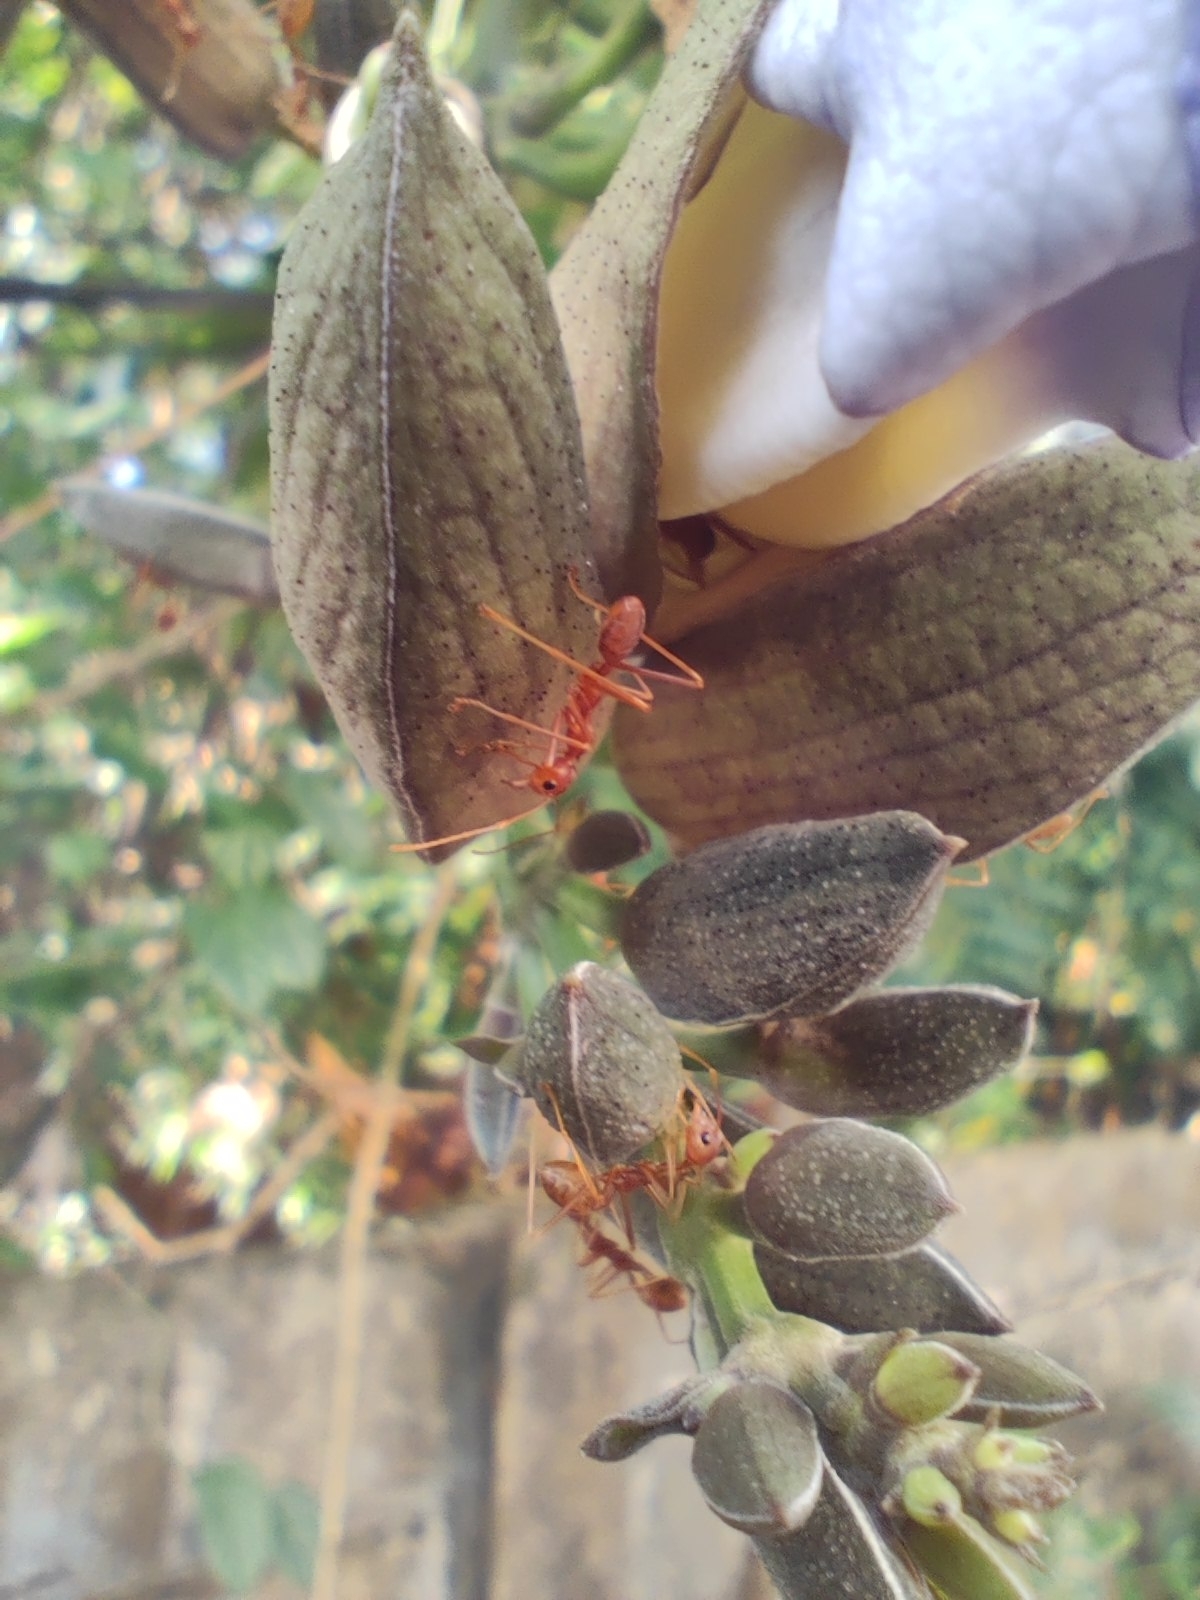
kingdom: Animalia
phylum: Arthropoda
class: Insecta
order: Hymenoptera
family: Formicidae
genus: Oecophylla
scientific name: Oecophylla smaragdina
